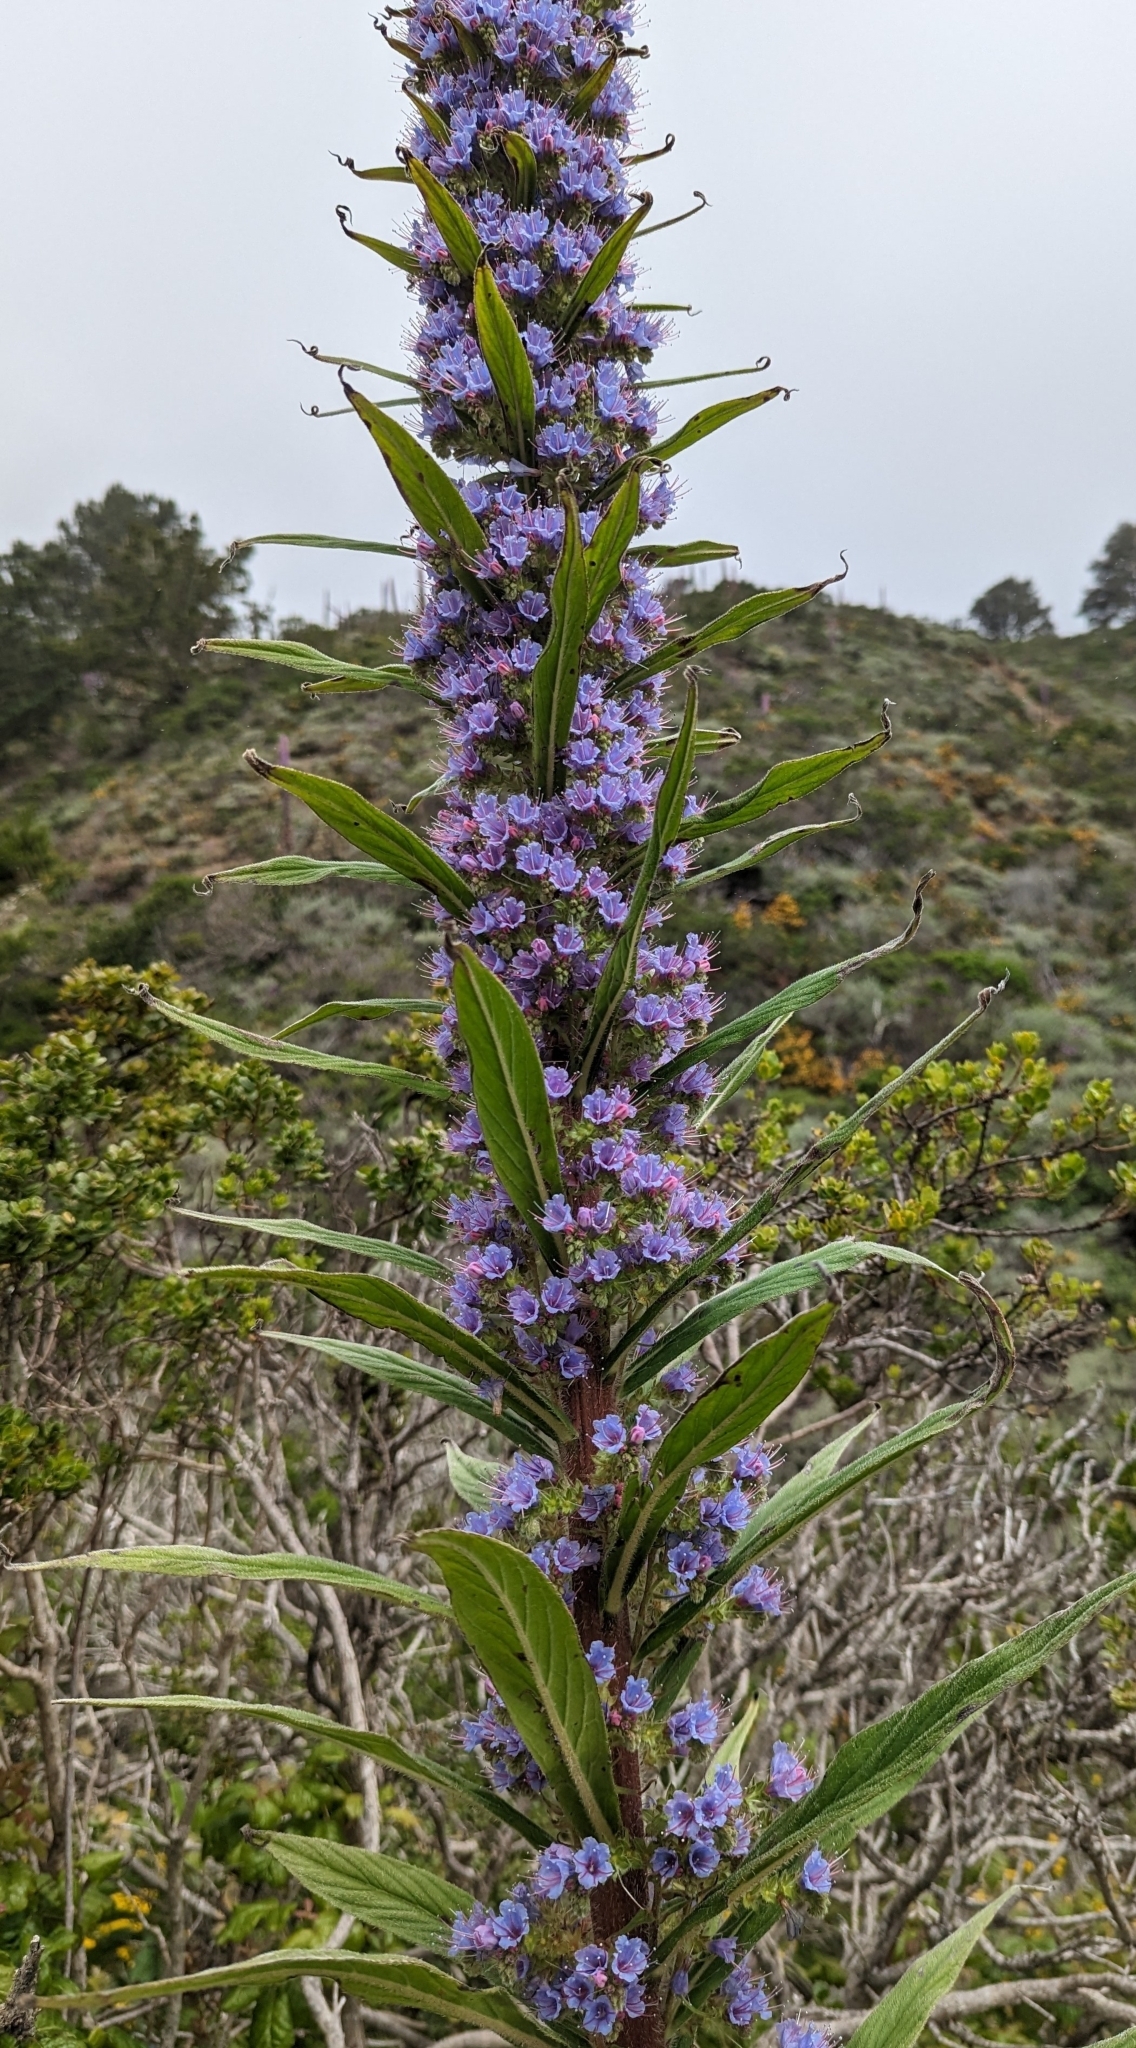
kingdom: Plantae
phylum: Tracheophyta
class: Magnoliopsida
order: Boraginales
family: Boraginaceae
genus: Echium
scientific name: Echium pininana
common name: Giant viper's-bugloss
